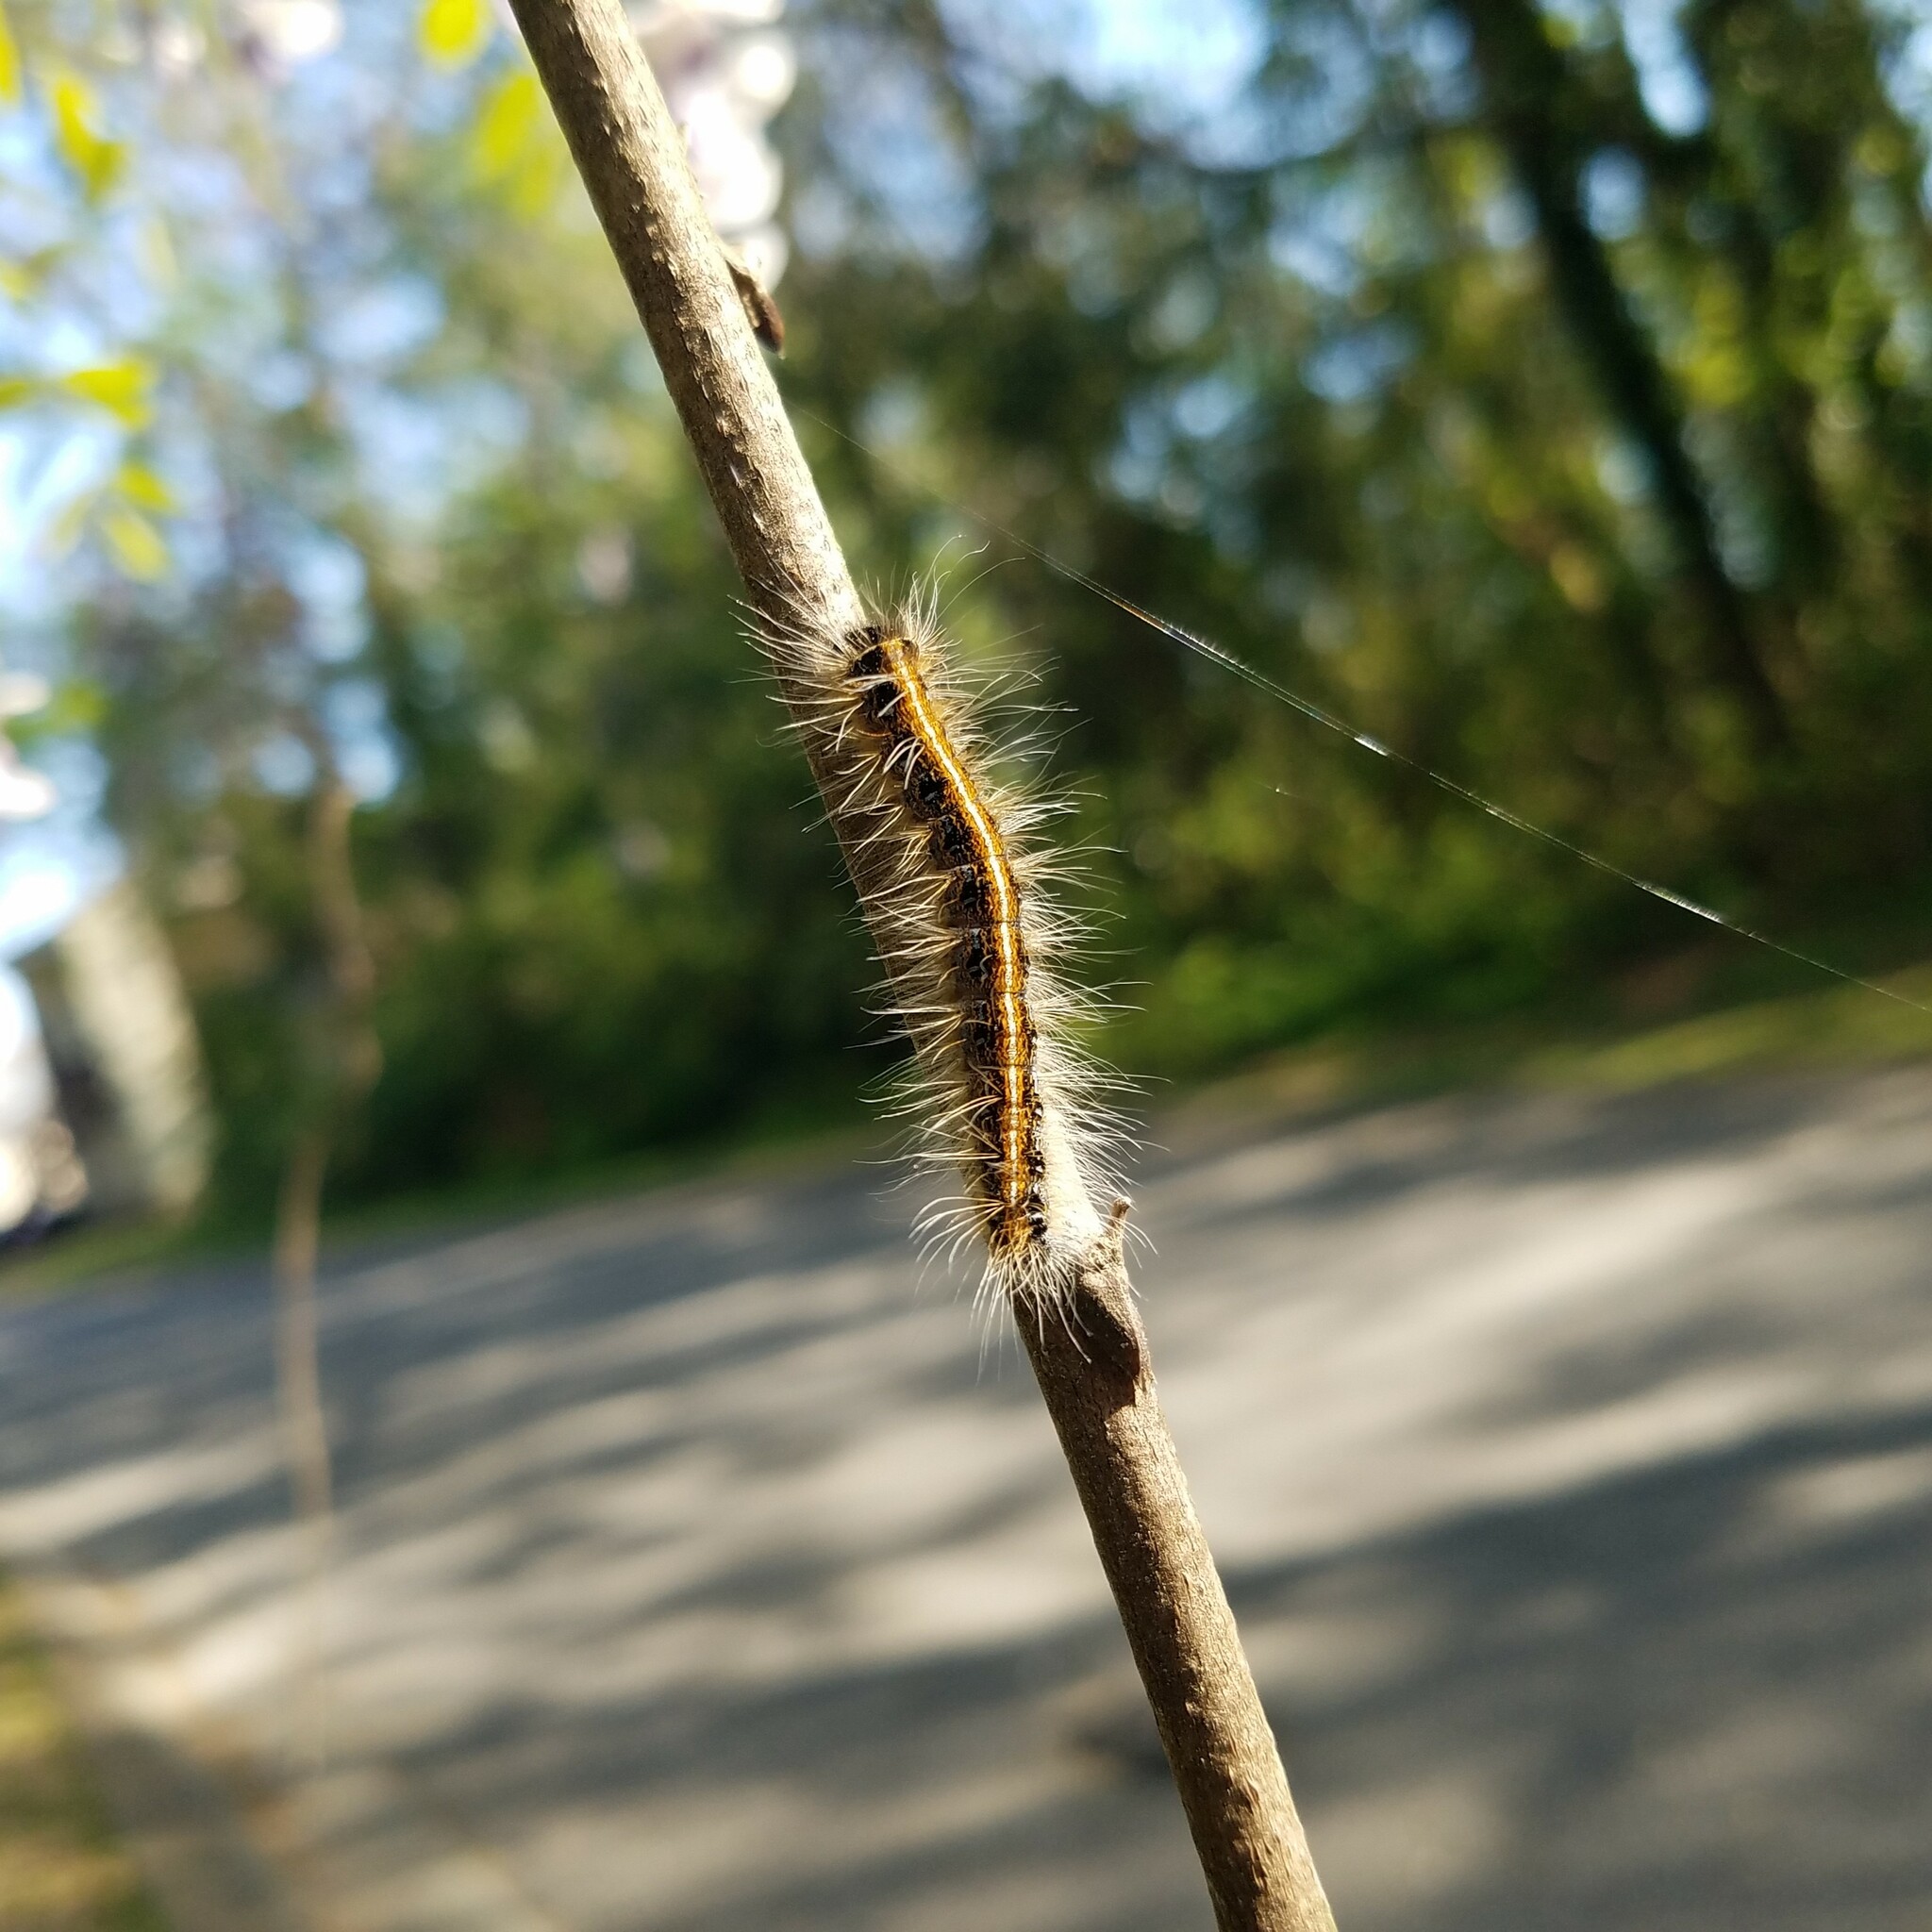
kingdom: Animalia
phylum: Arthropoda
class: Insecta
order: Lepidoptera
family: Lasiocampidae
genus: Malacosoma
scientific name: Malacosoma americana
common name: Eastern tent caterpillar moth
